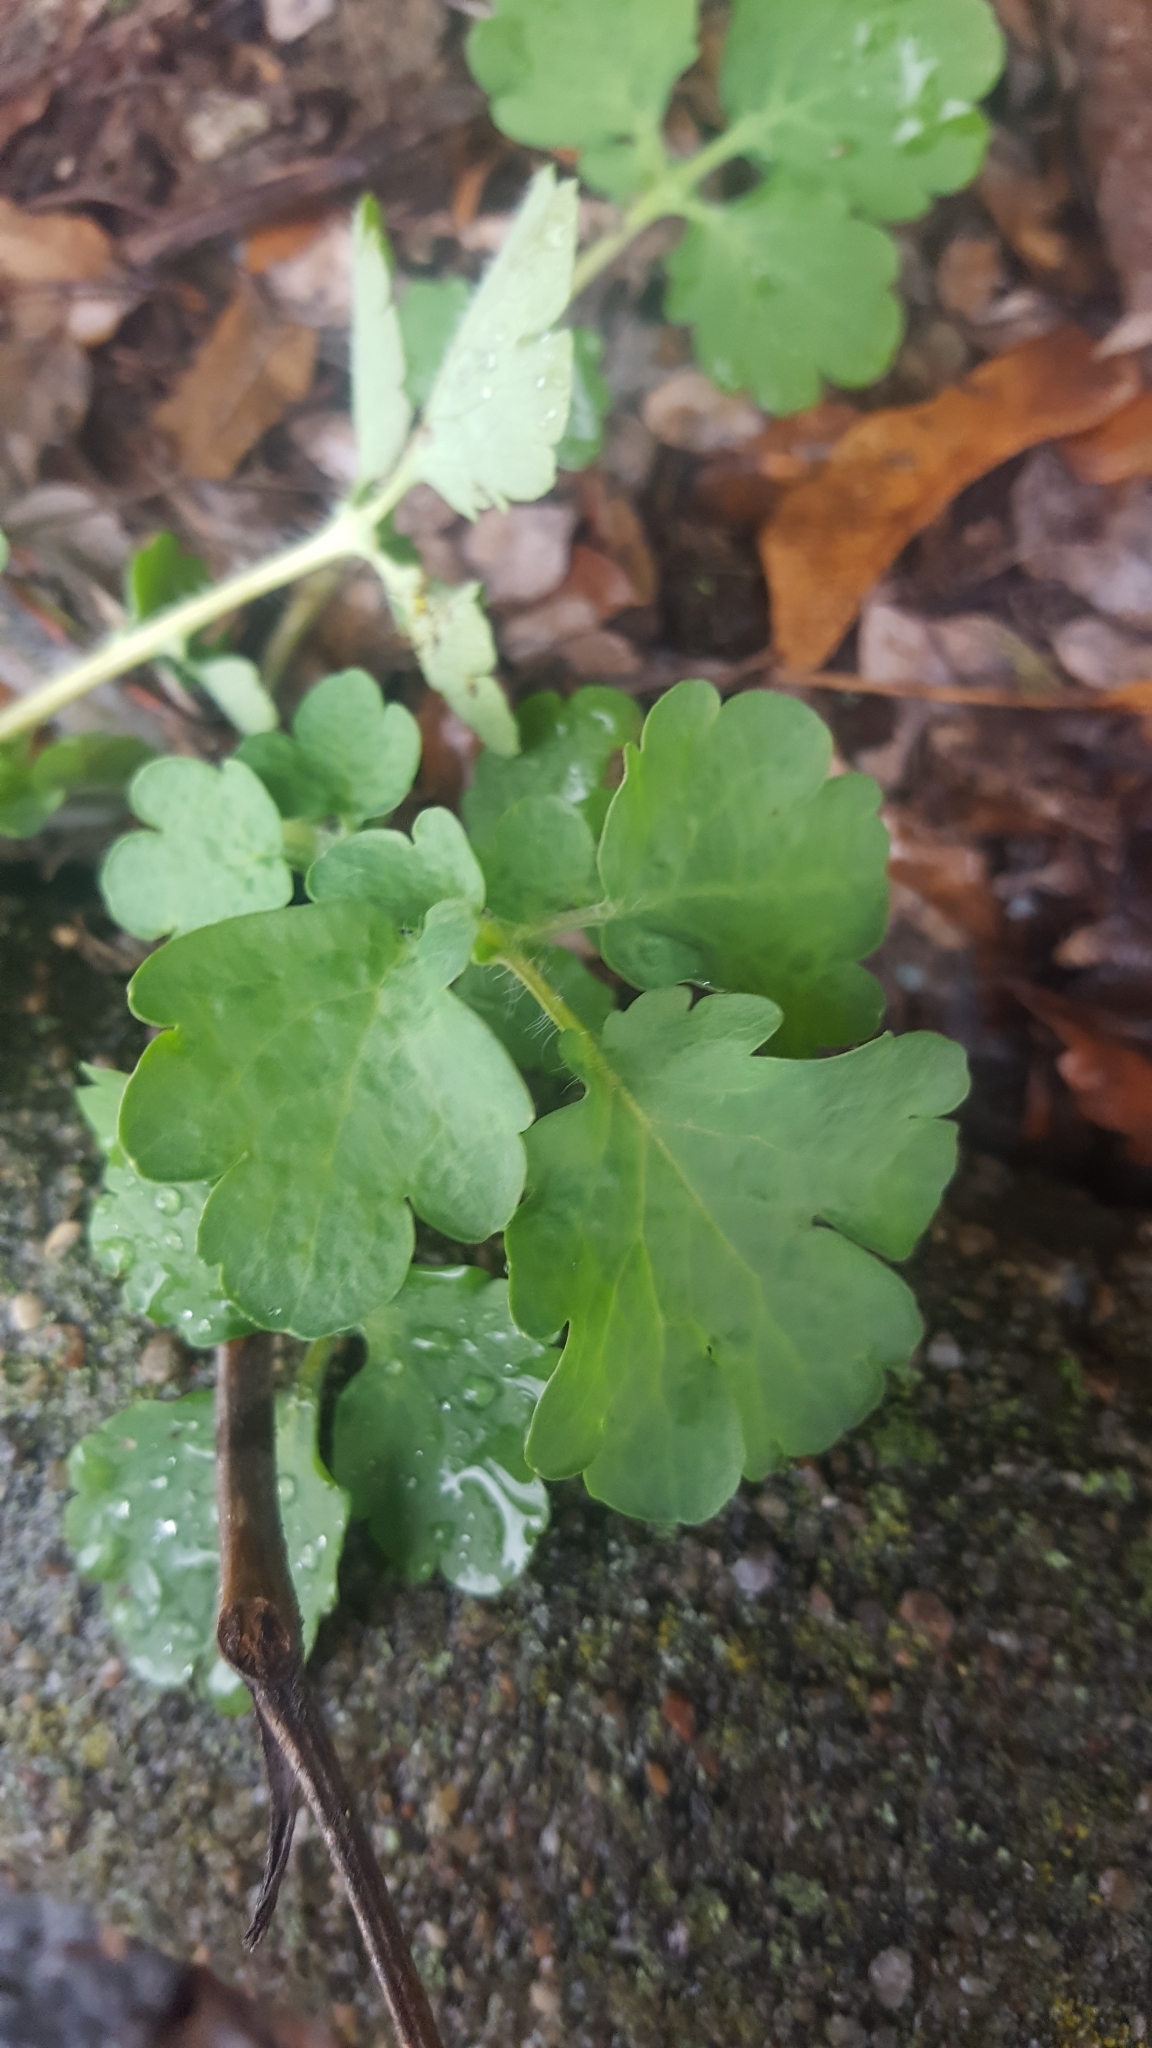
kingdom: Plantae
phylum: Tracheophyta
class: Magnoliopsida
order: Ranunculales
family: Papaveraceae
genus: Chelidonium
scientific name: Chelidonium majus
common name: Greater celandine
